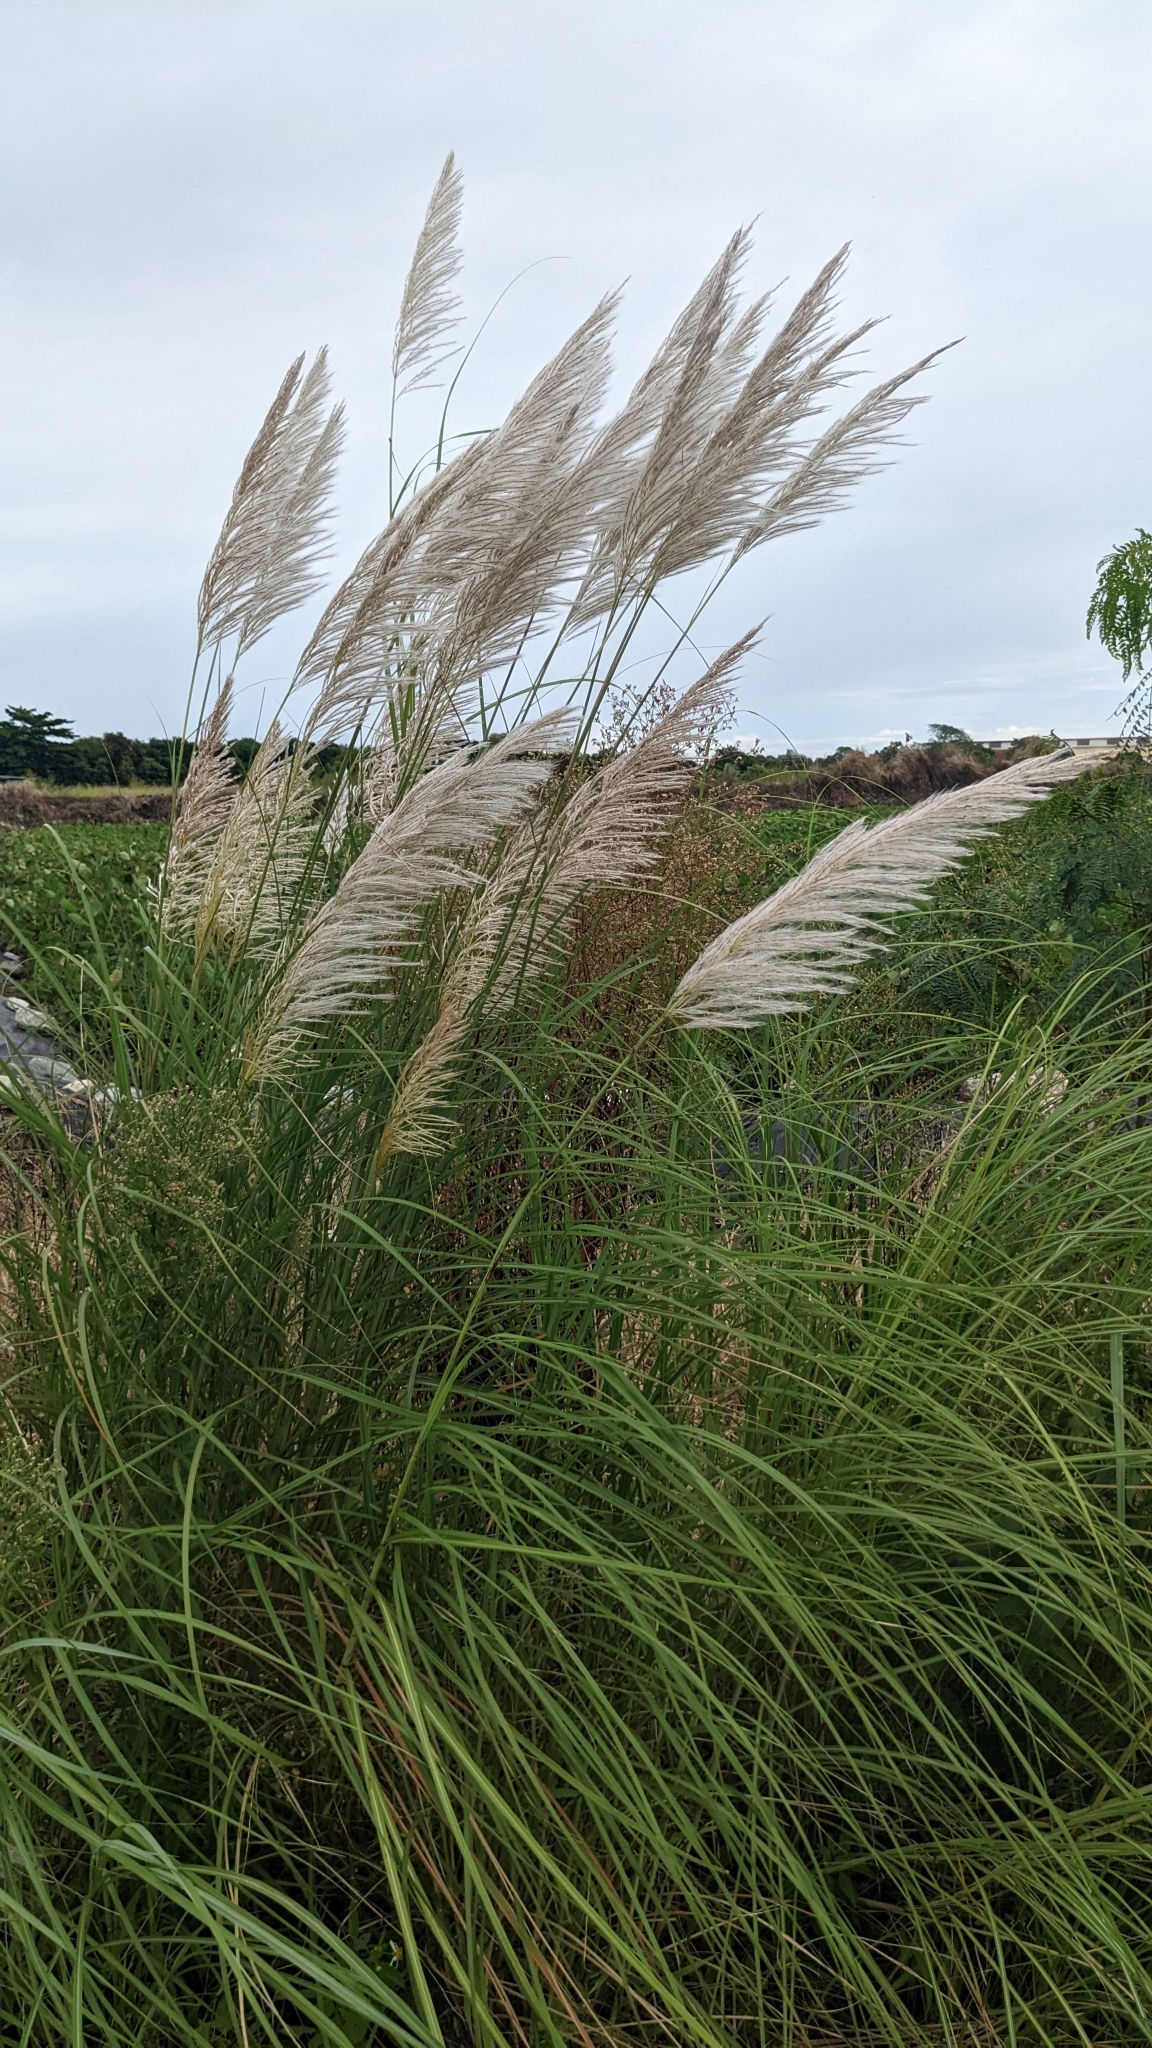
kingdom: Plantae
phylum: Tracheophyta
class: Liliopsida
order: Poales
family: Poaceae
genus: Saccharum
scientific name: Saccharum spontaneum
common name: Wild sugarcane
